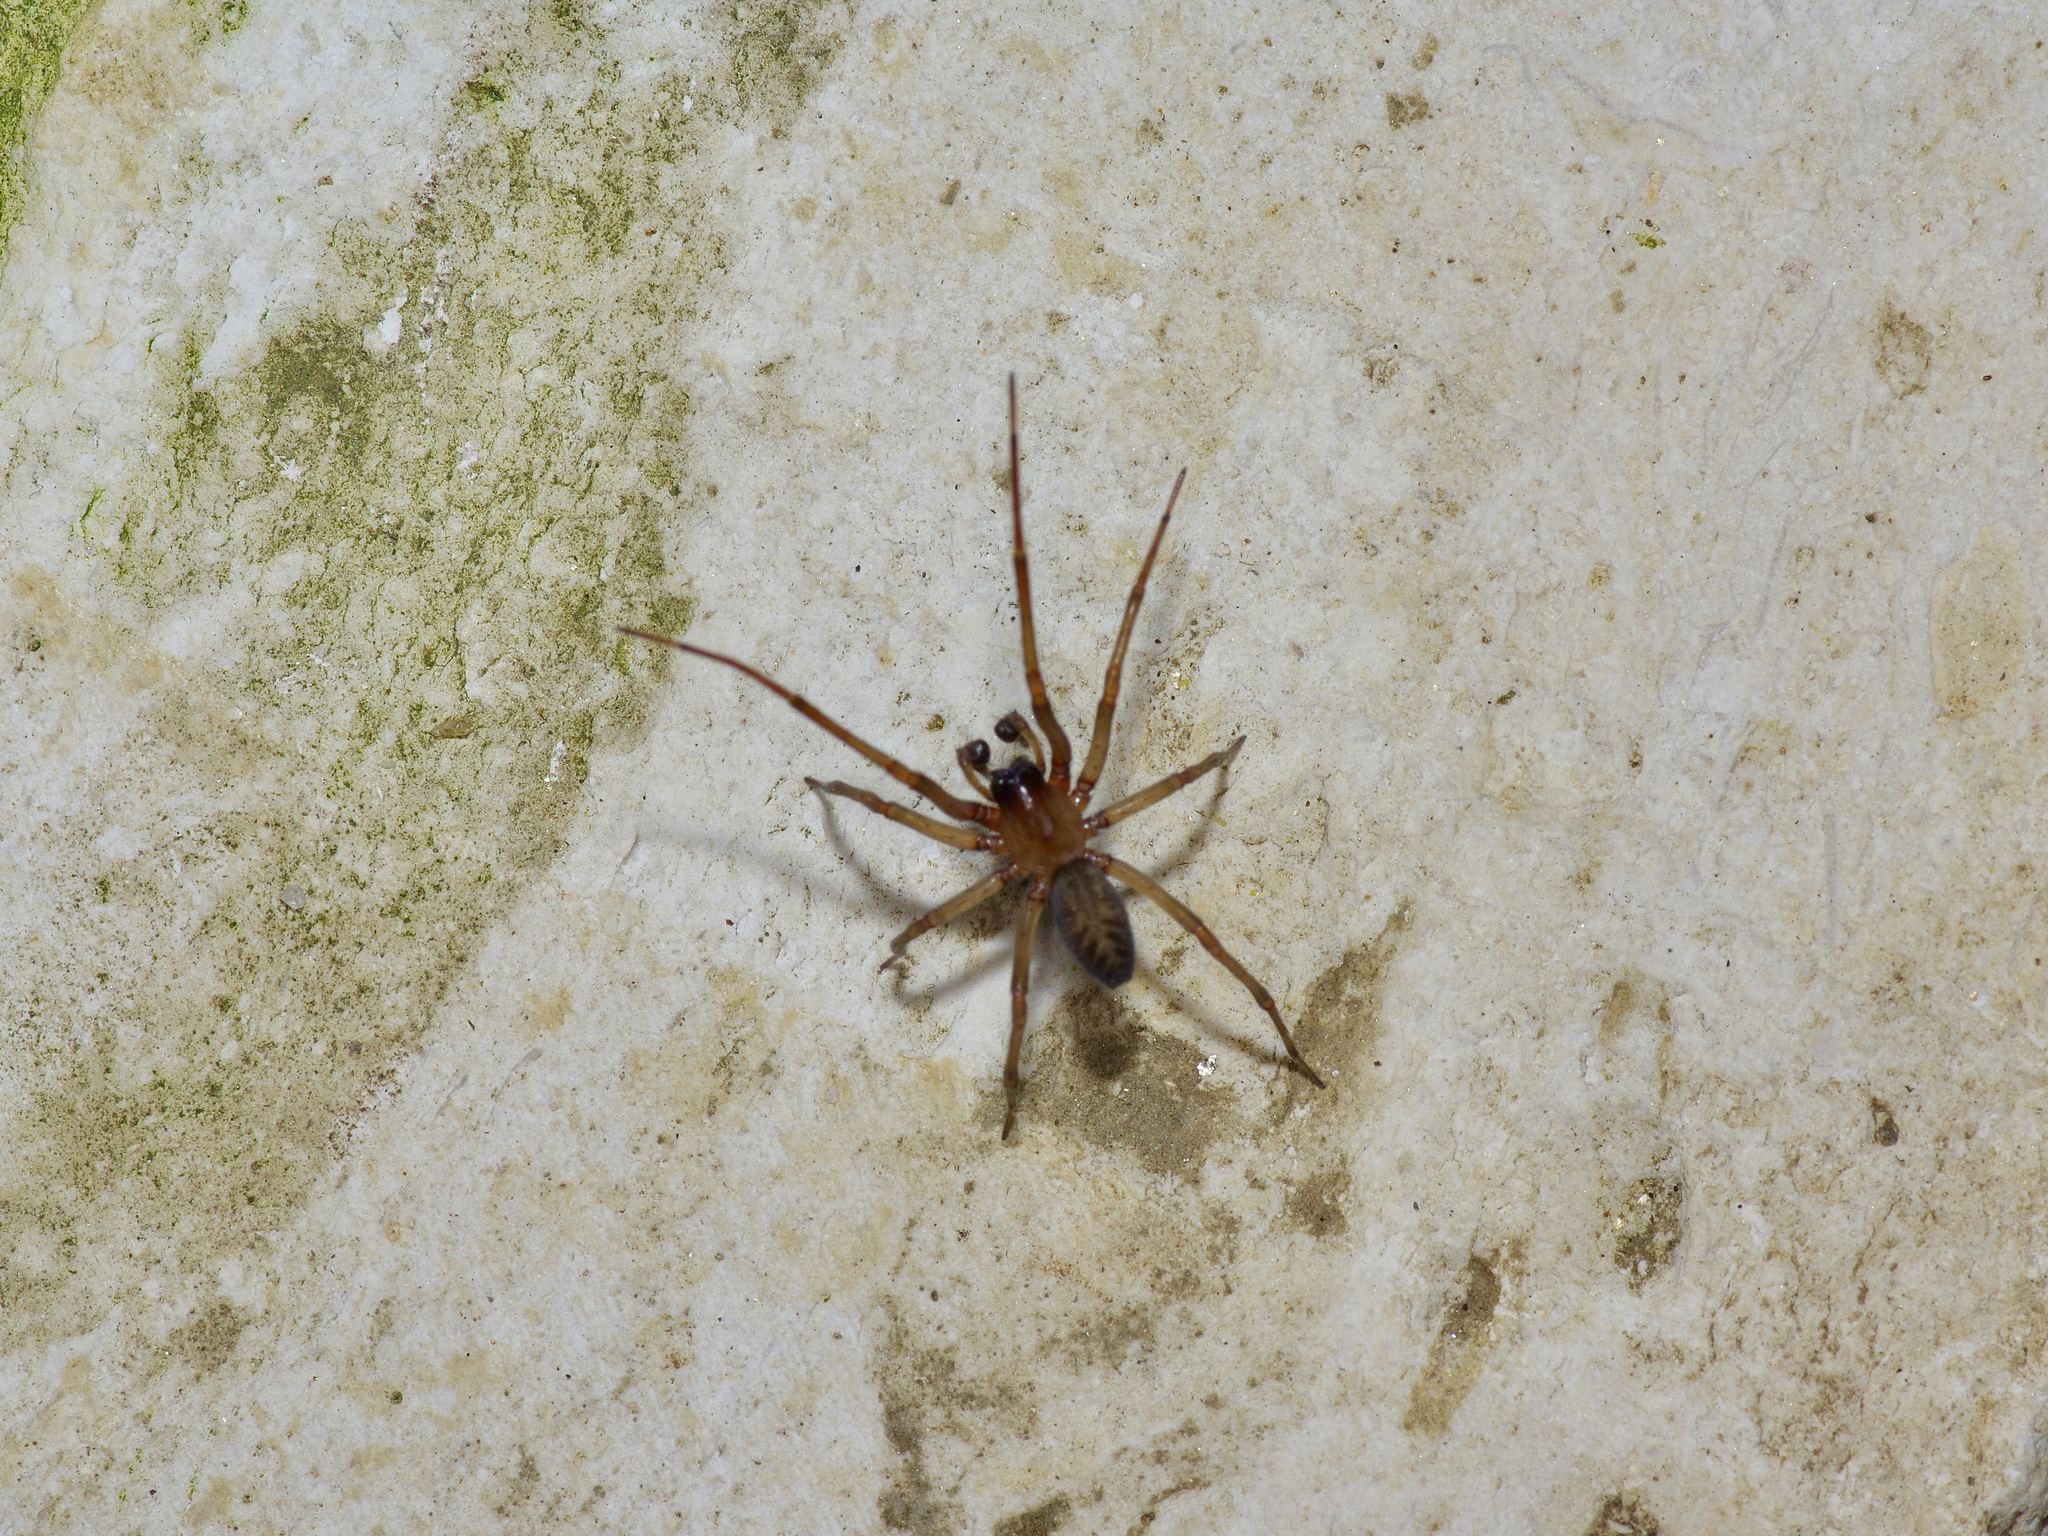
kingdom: Animalia
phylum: Arthropoda
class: Arachnida
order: Araneae
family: Desidae
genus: Metaltella
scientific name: Metaltella simoni
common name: Cribellate spider
